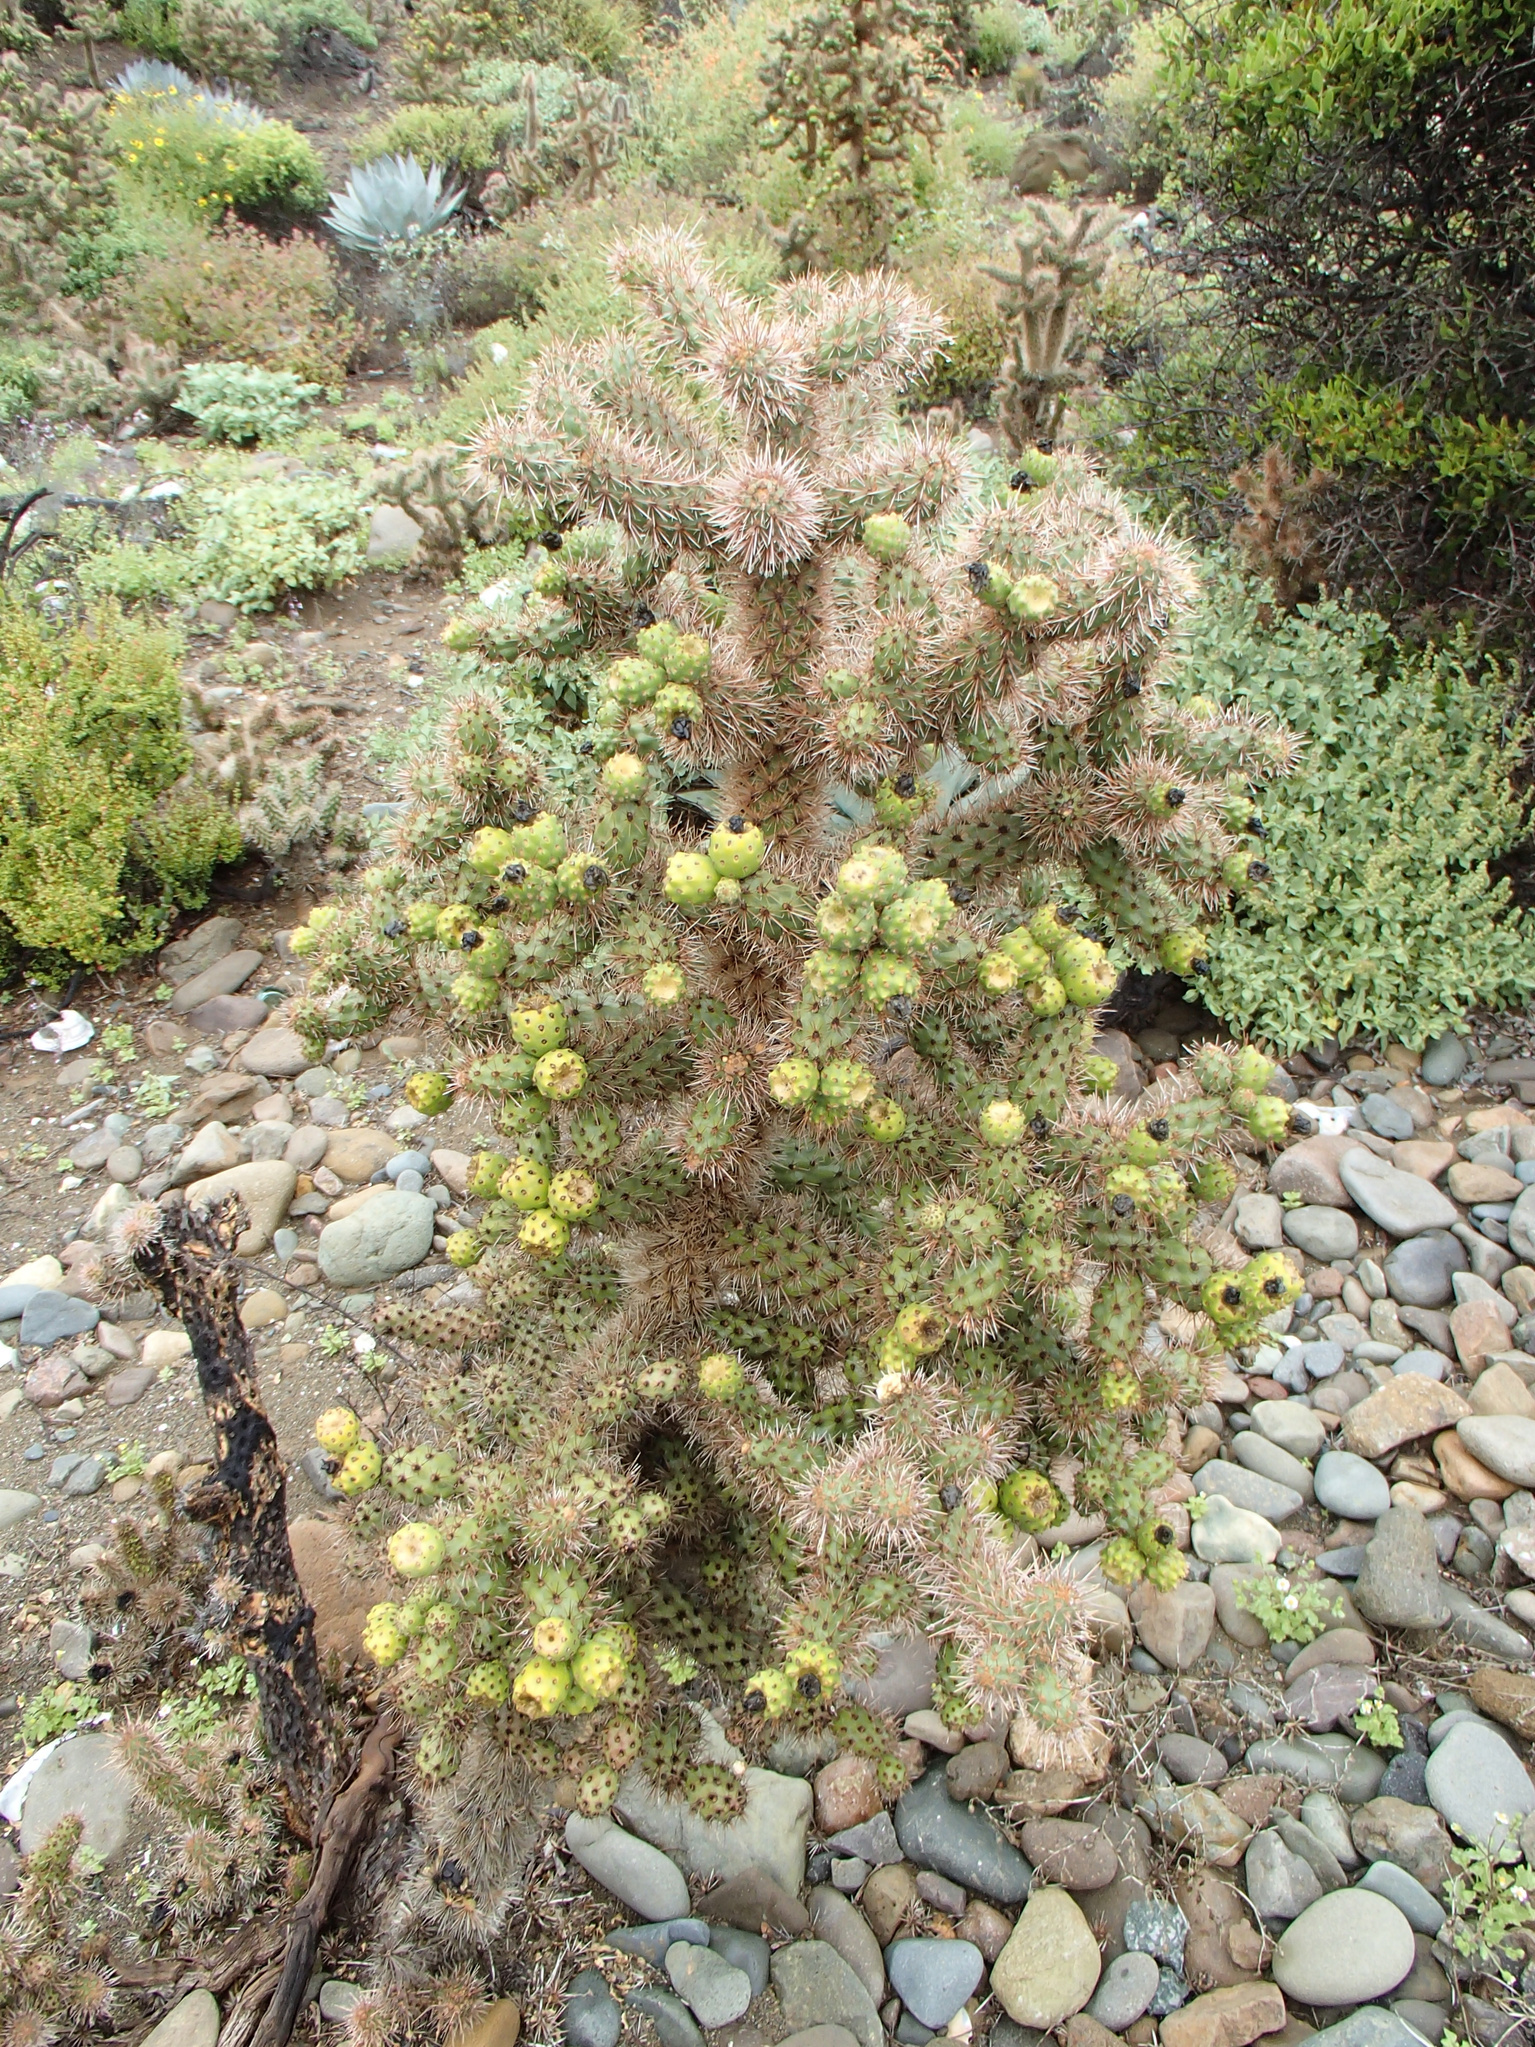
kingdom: Plantae
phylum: Tracheophyta
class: Magnoliopsida
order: Caryophyllales
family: Cactaceae
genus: Cylindropuntia
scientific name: Cylindropuntia alcahes
